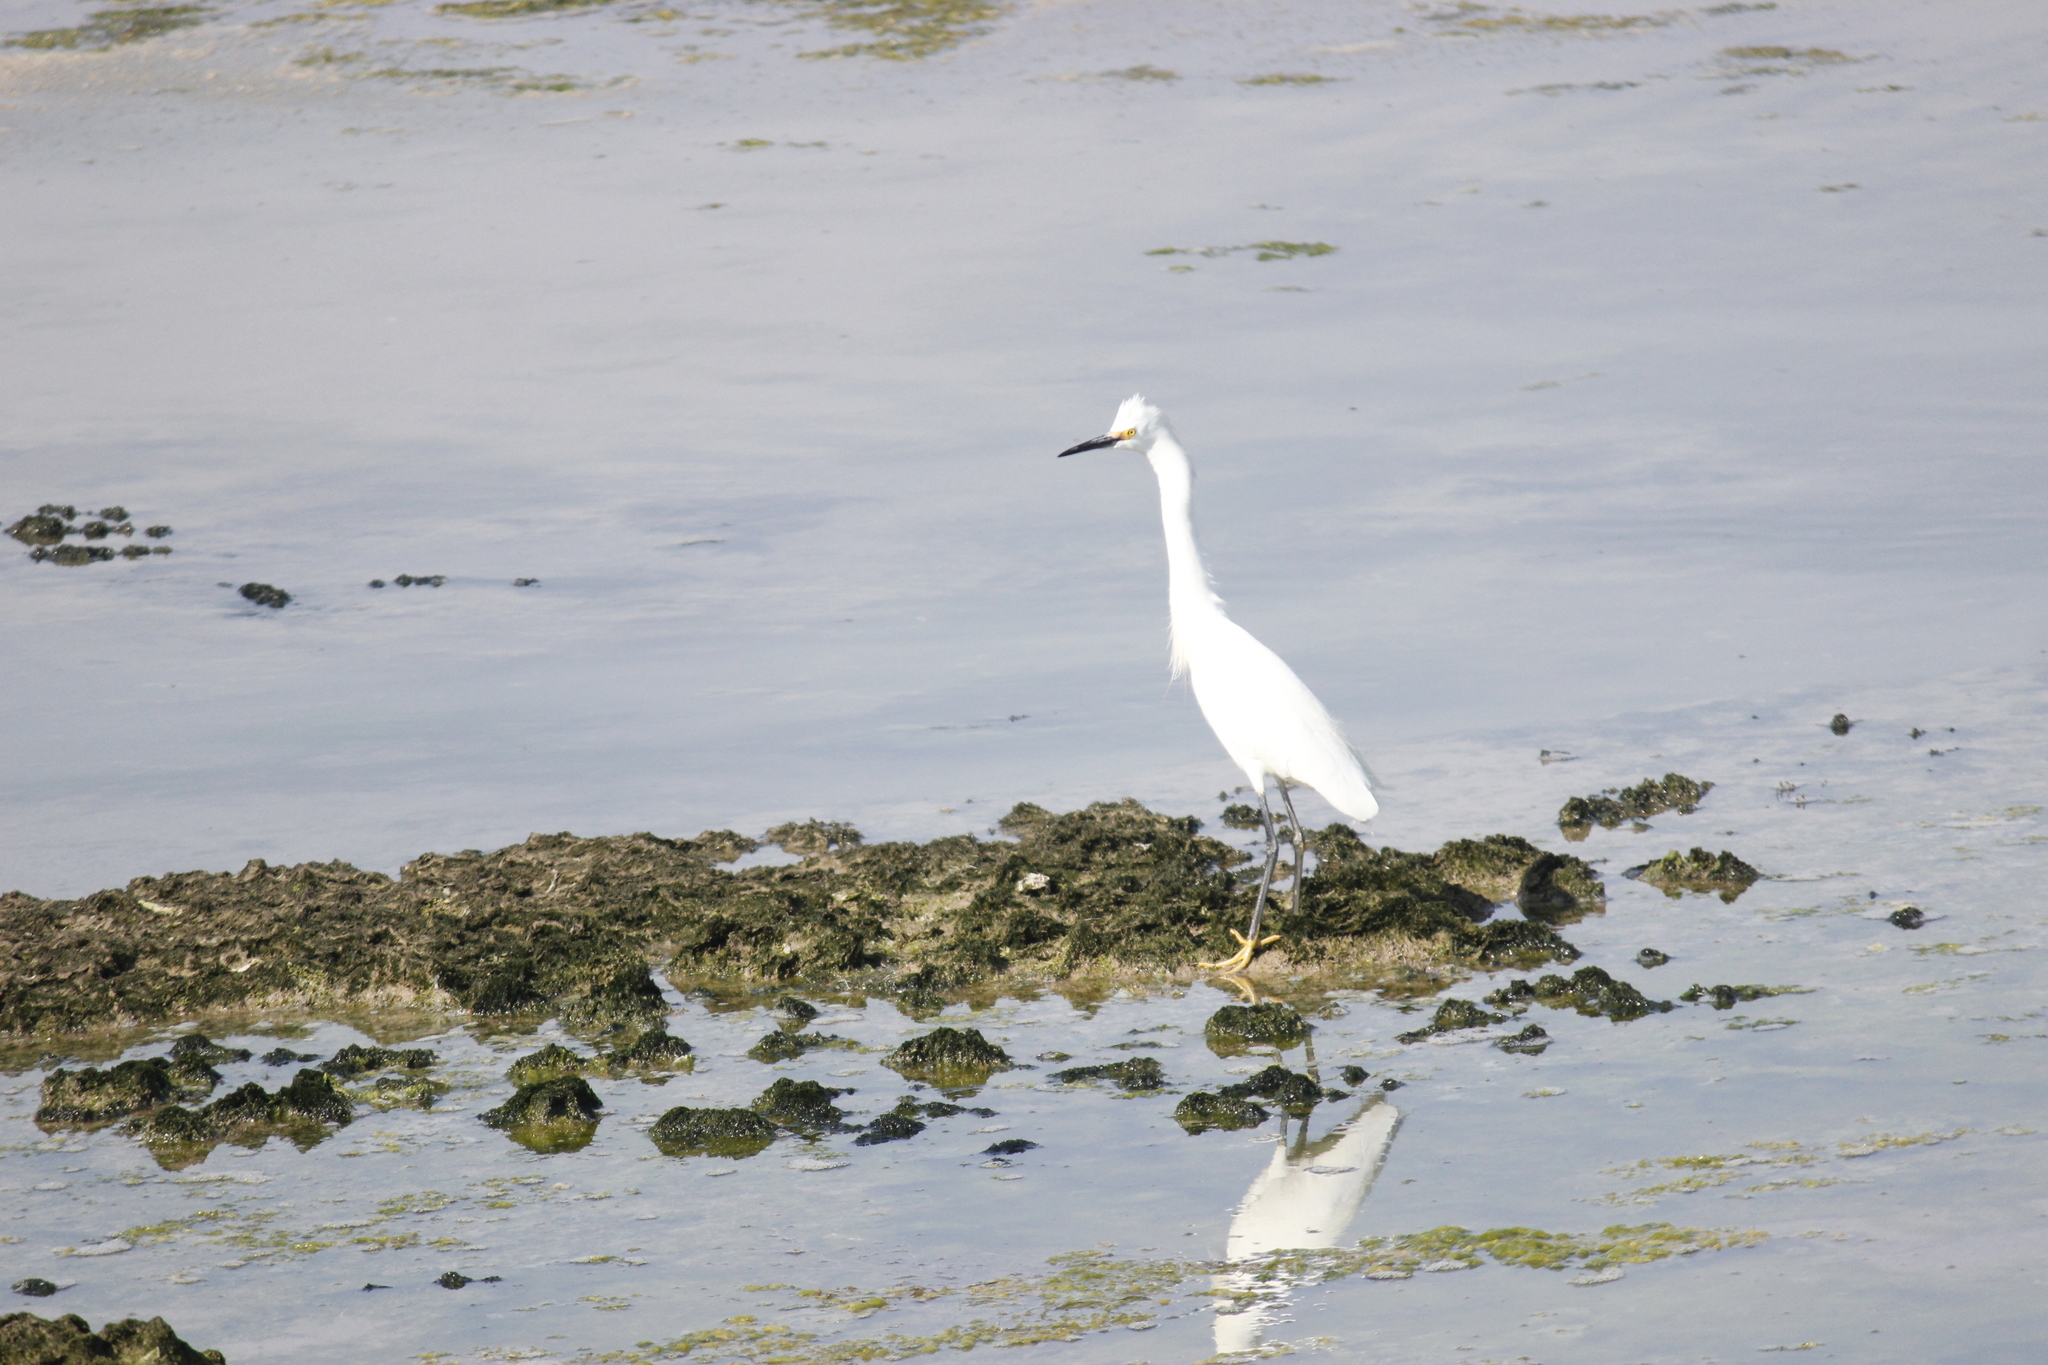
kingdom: Animalia
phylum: Chordata
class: Aves
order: Pelecaniformes
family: Ardeidae
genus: Egretta
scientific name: Egretta thula
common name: Snowy egret
